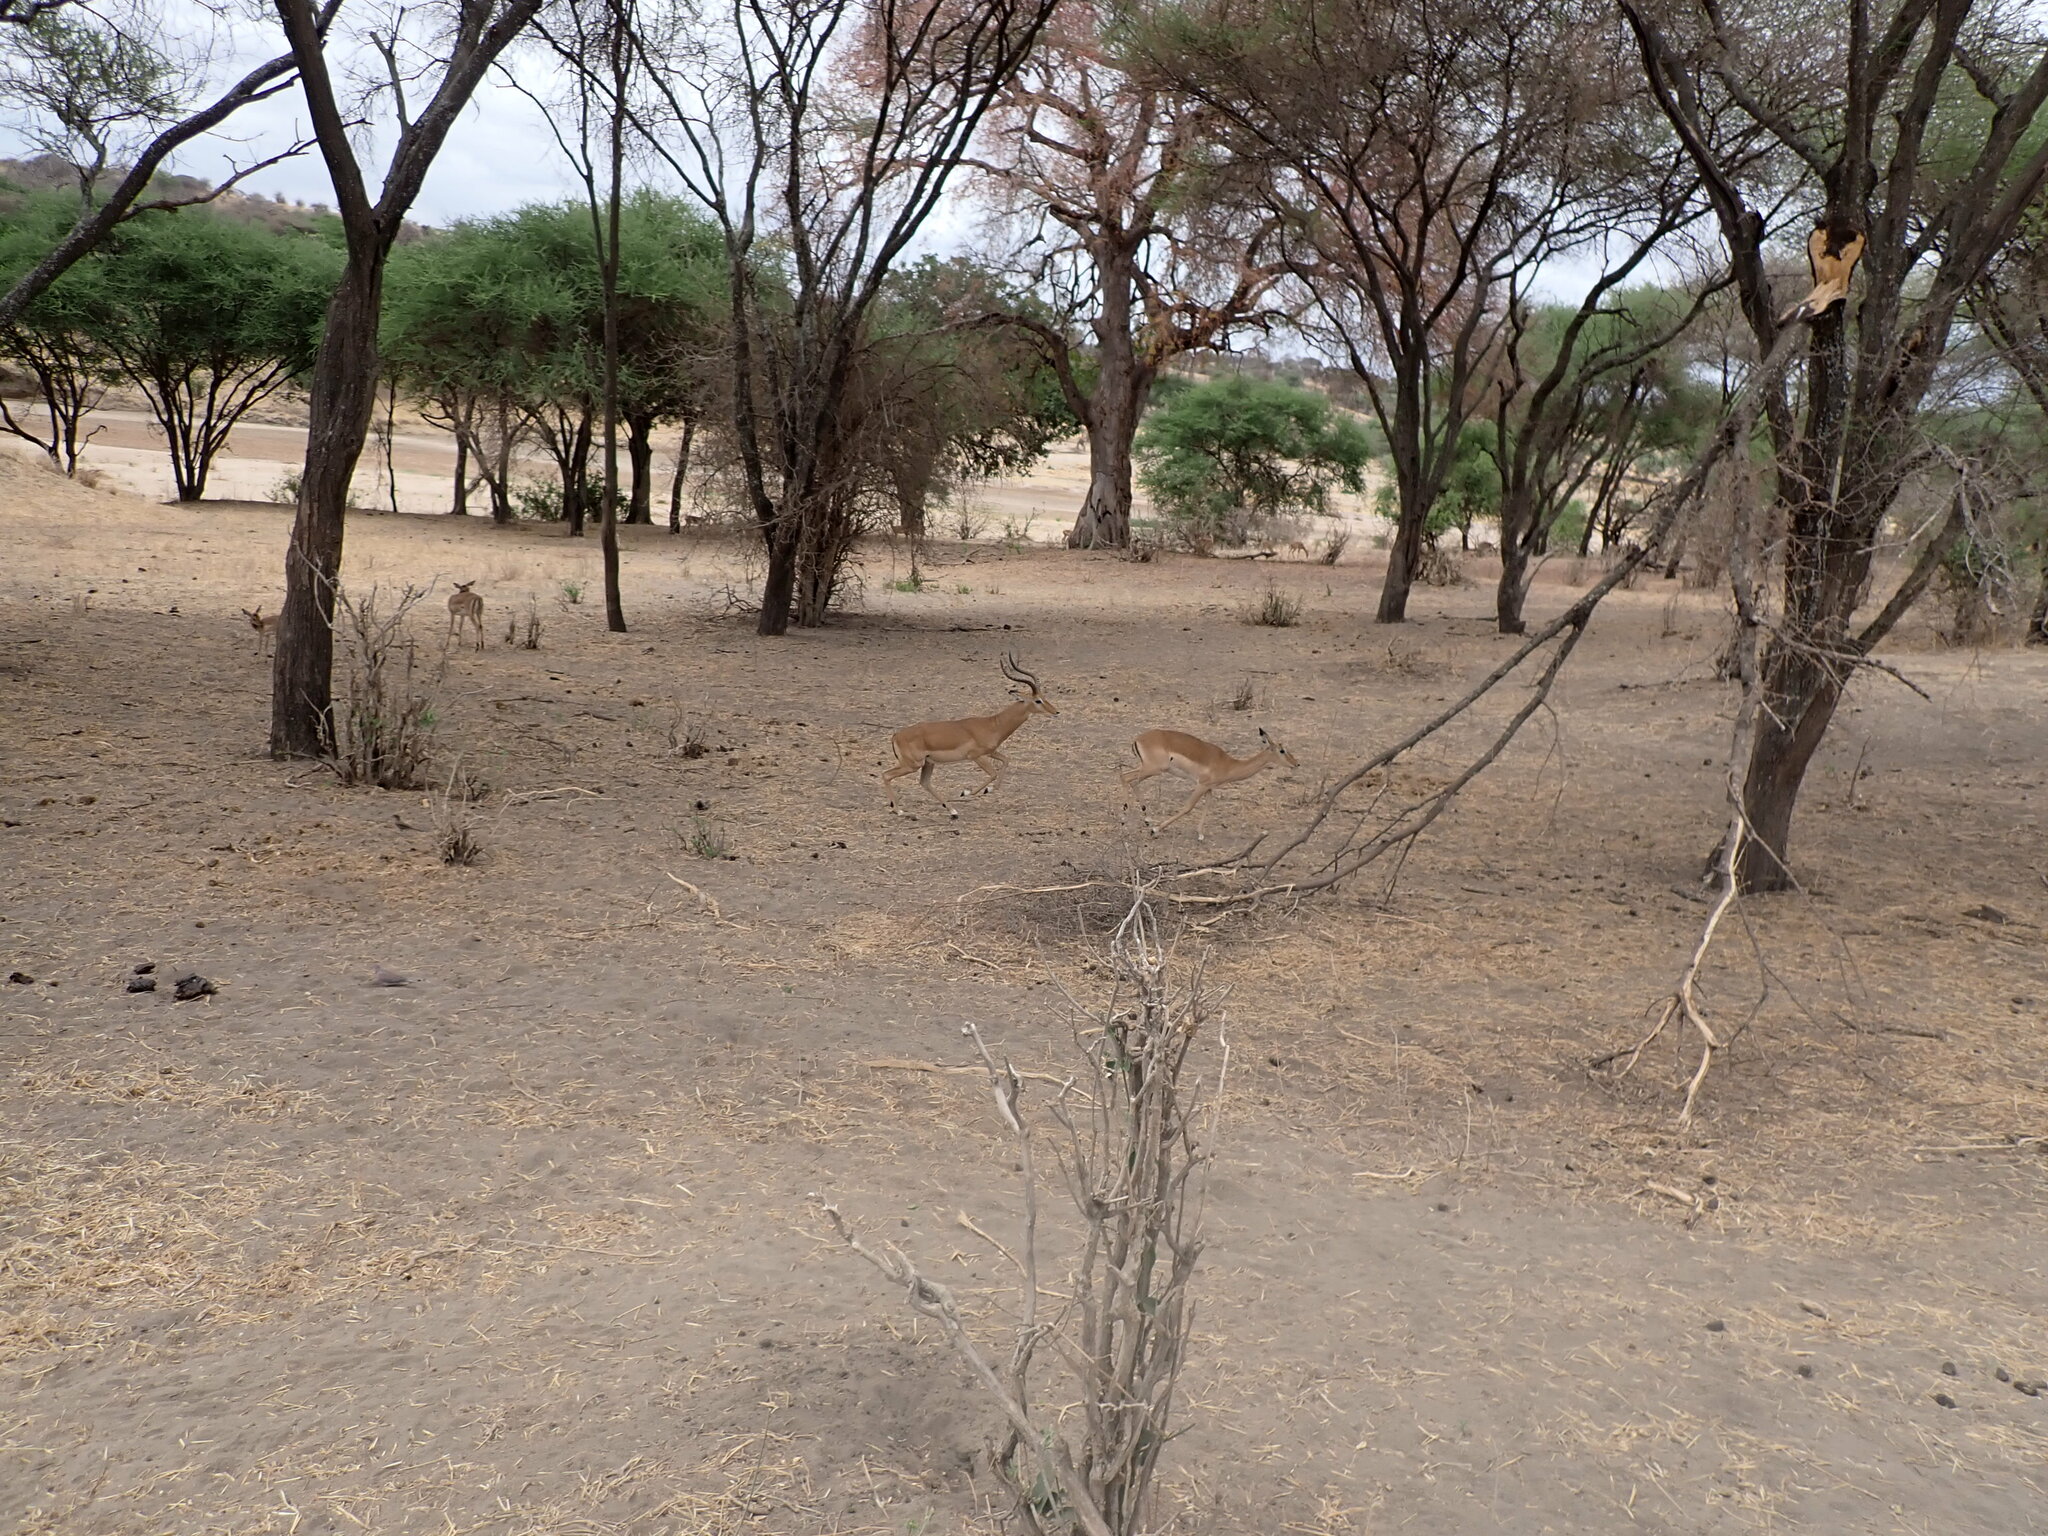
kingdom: Animalia
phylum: Chordata
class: Mammalia
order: Artiodactyla
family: Bovidae
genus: Aepyceros
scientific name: Aepyceros melampus
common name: Impala
